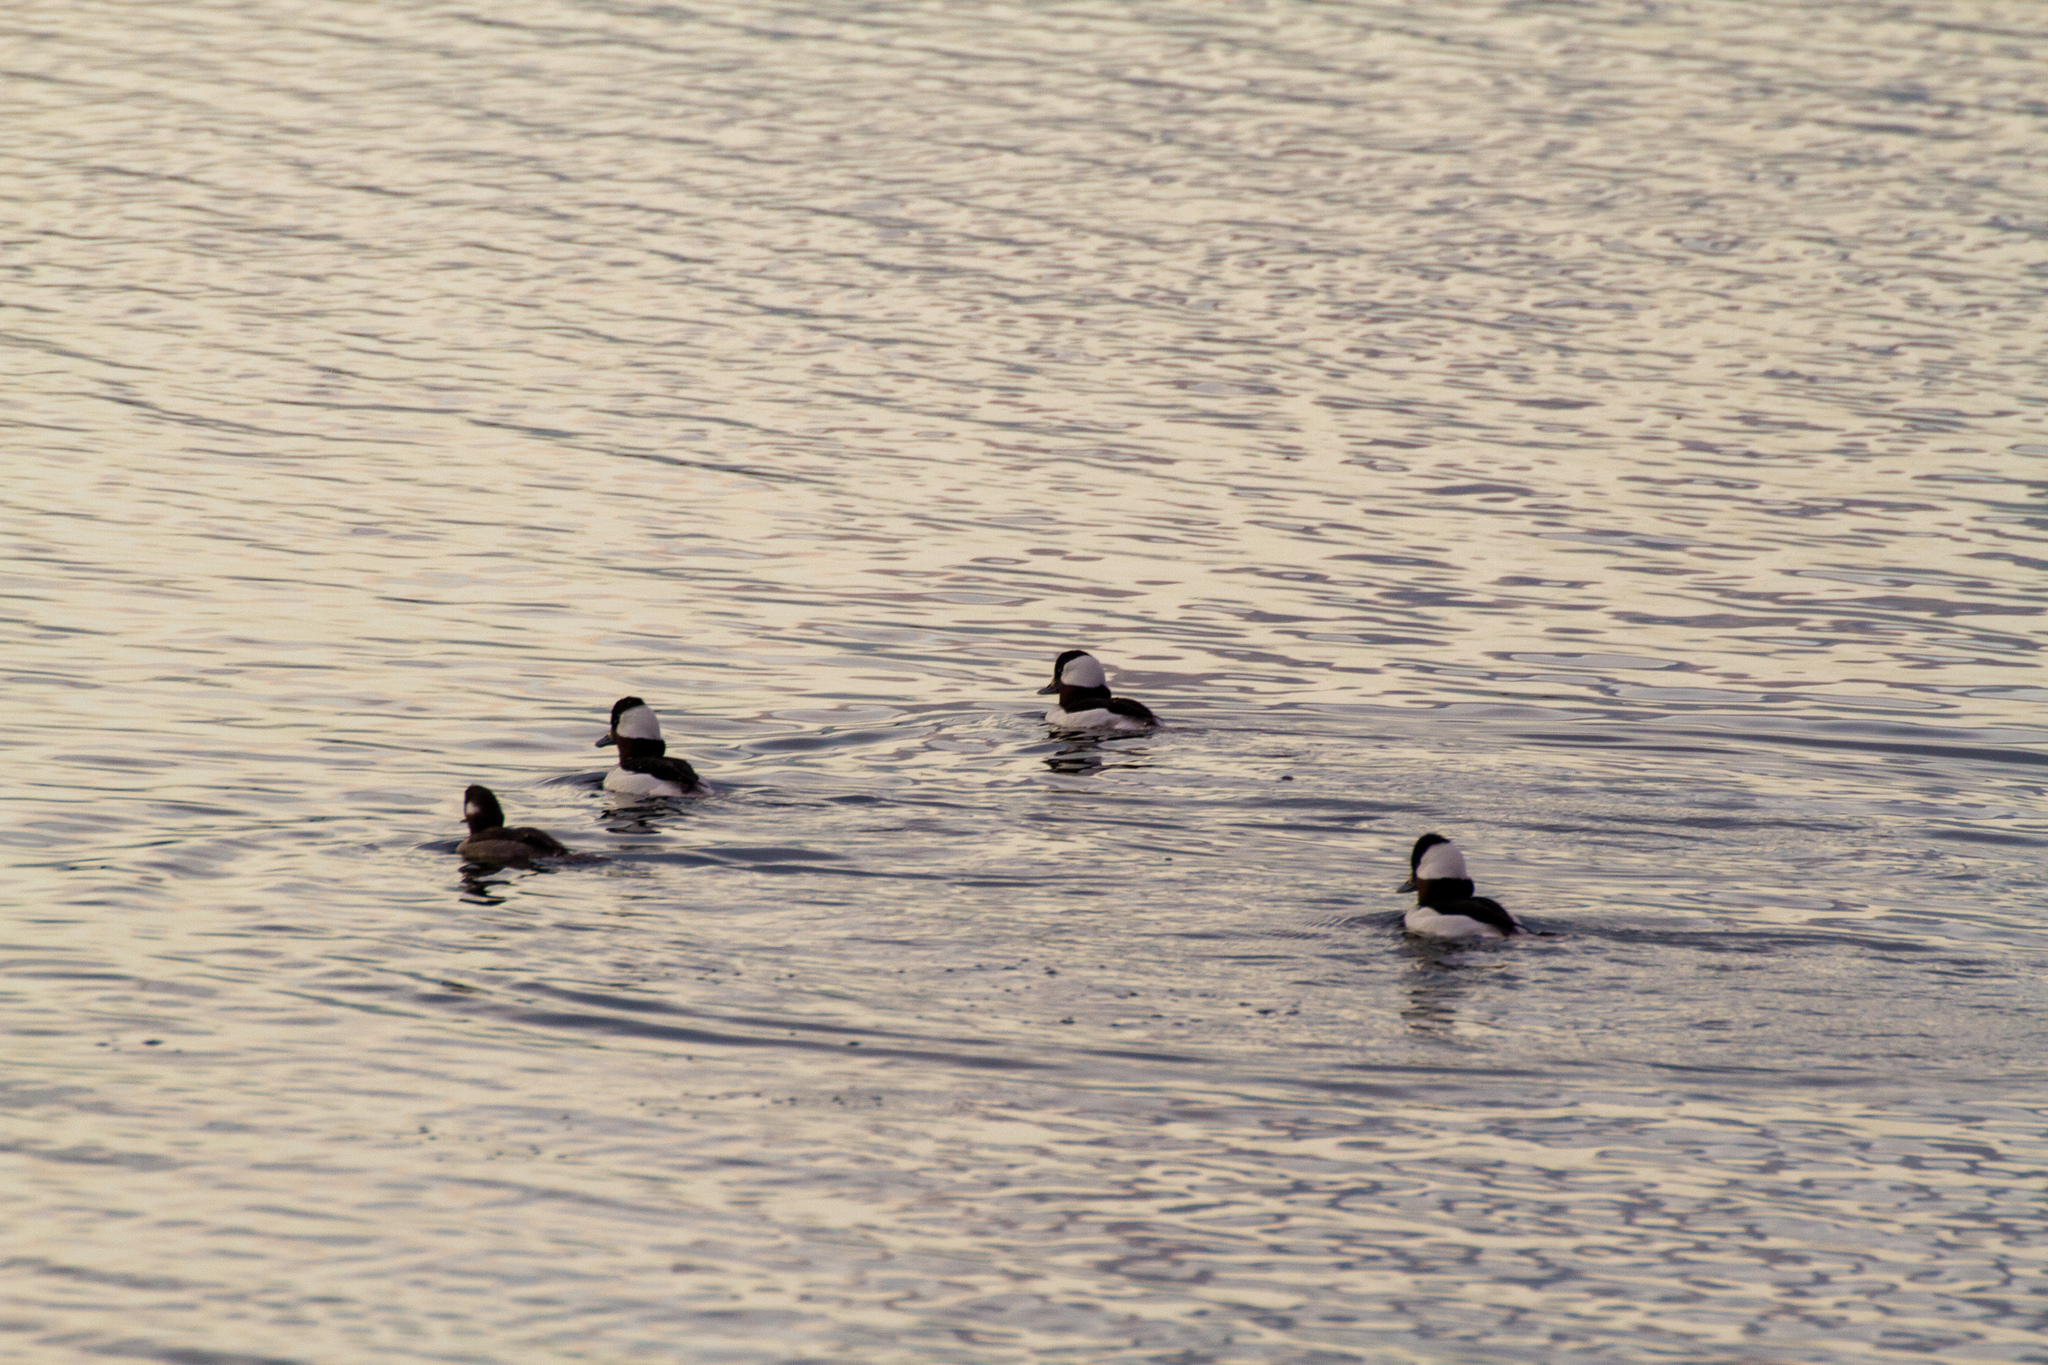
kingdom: Animalia
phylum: Chordata
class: Aves
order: Anseriformes
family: Anatidae
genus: Bucephala
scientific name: Bucephala albeola
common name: Bufflehead
